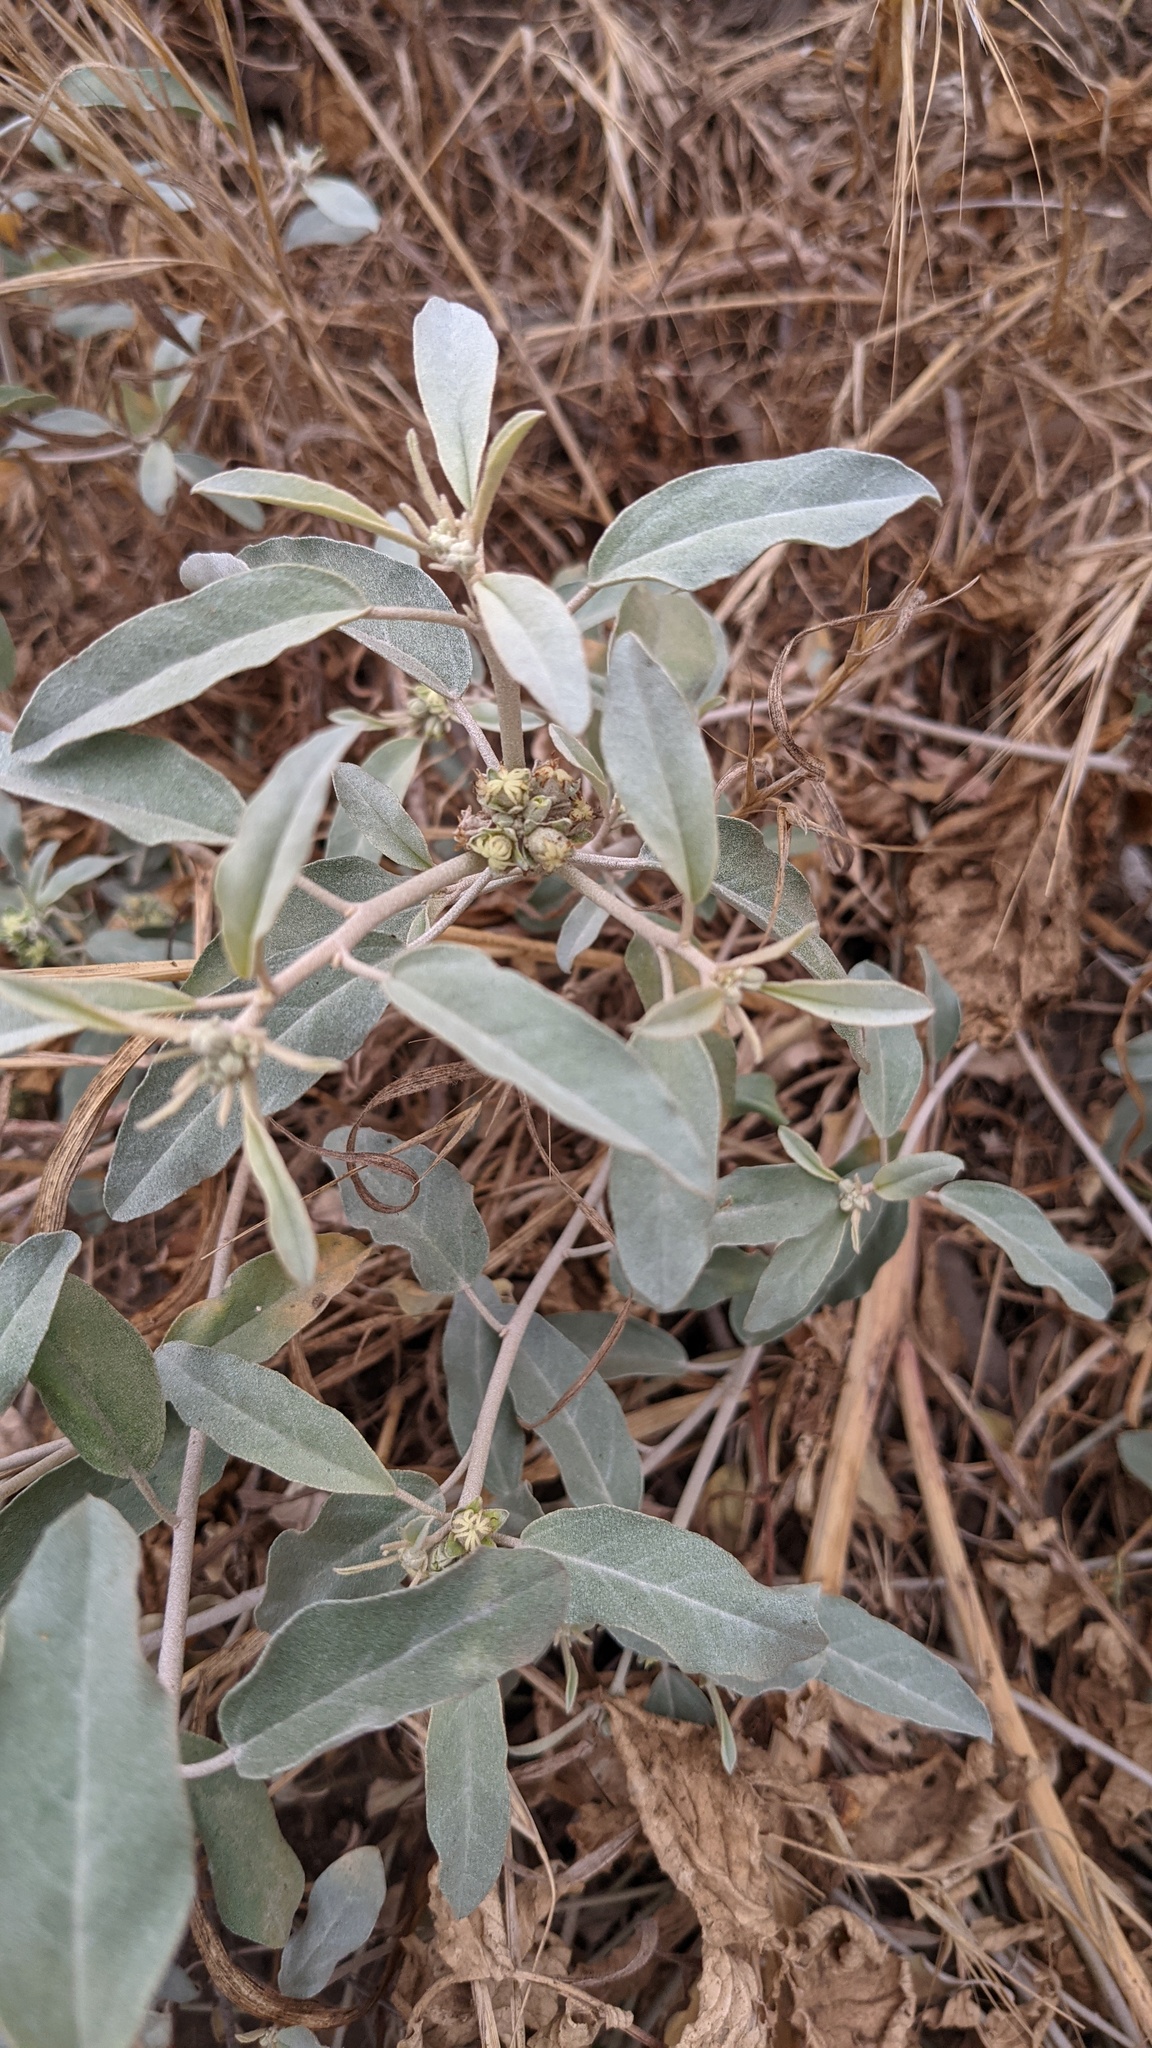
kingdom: Plantae
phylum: Tracheophyta
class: Magnoliopsida
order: Malpighiales
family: Euphorbiaceae
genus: Croton
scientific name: Croton californicus
